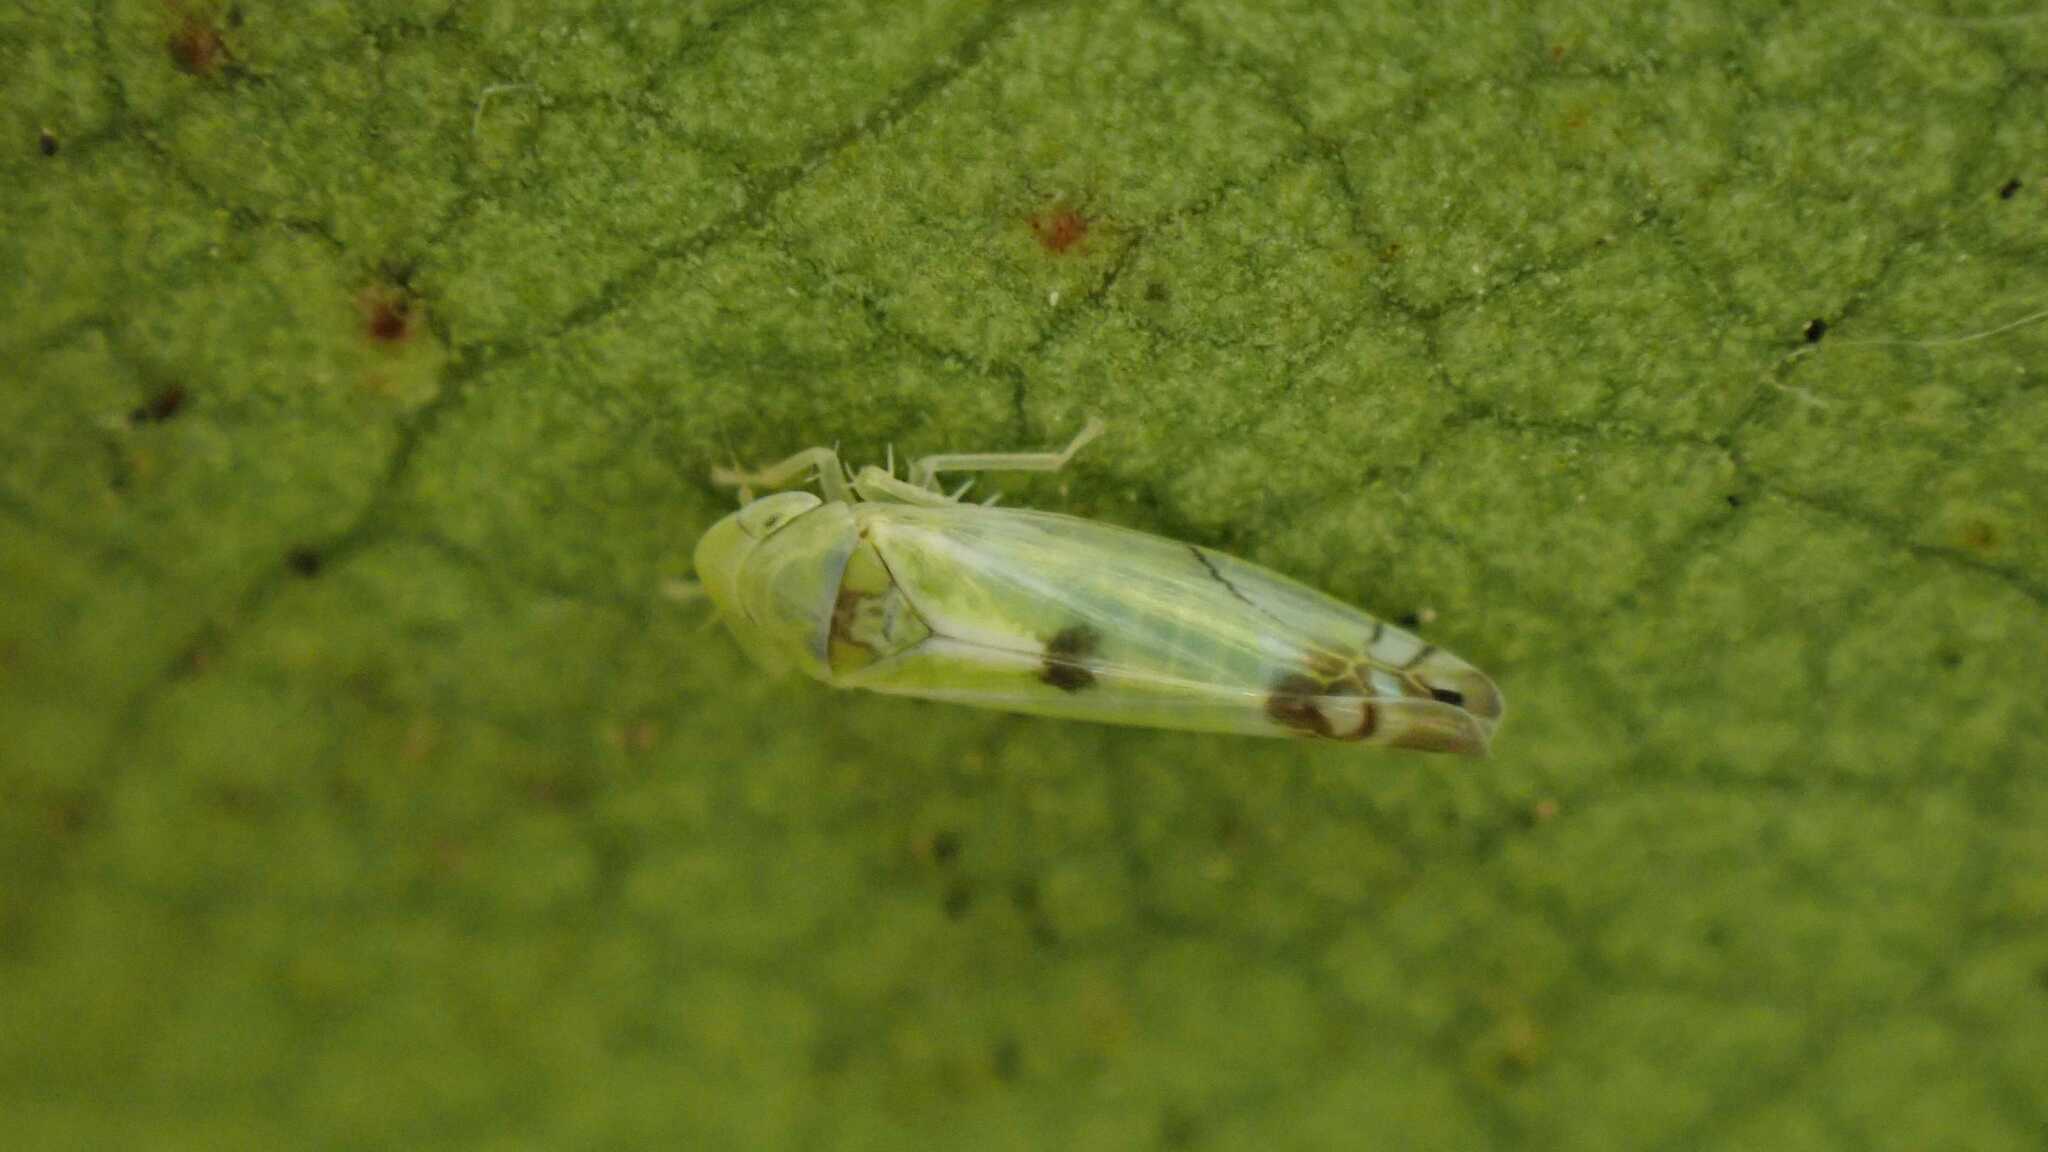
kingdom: Animalia
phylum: Arthropoda
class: Insecta
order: Hemiptera
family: Cicadellidae
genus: Zyginella
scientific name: Zyginella pulchra
